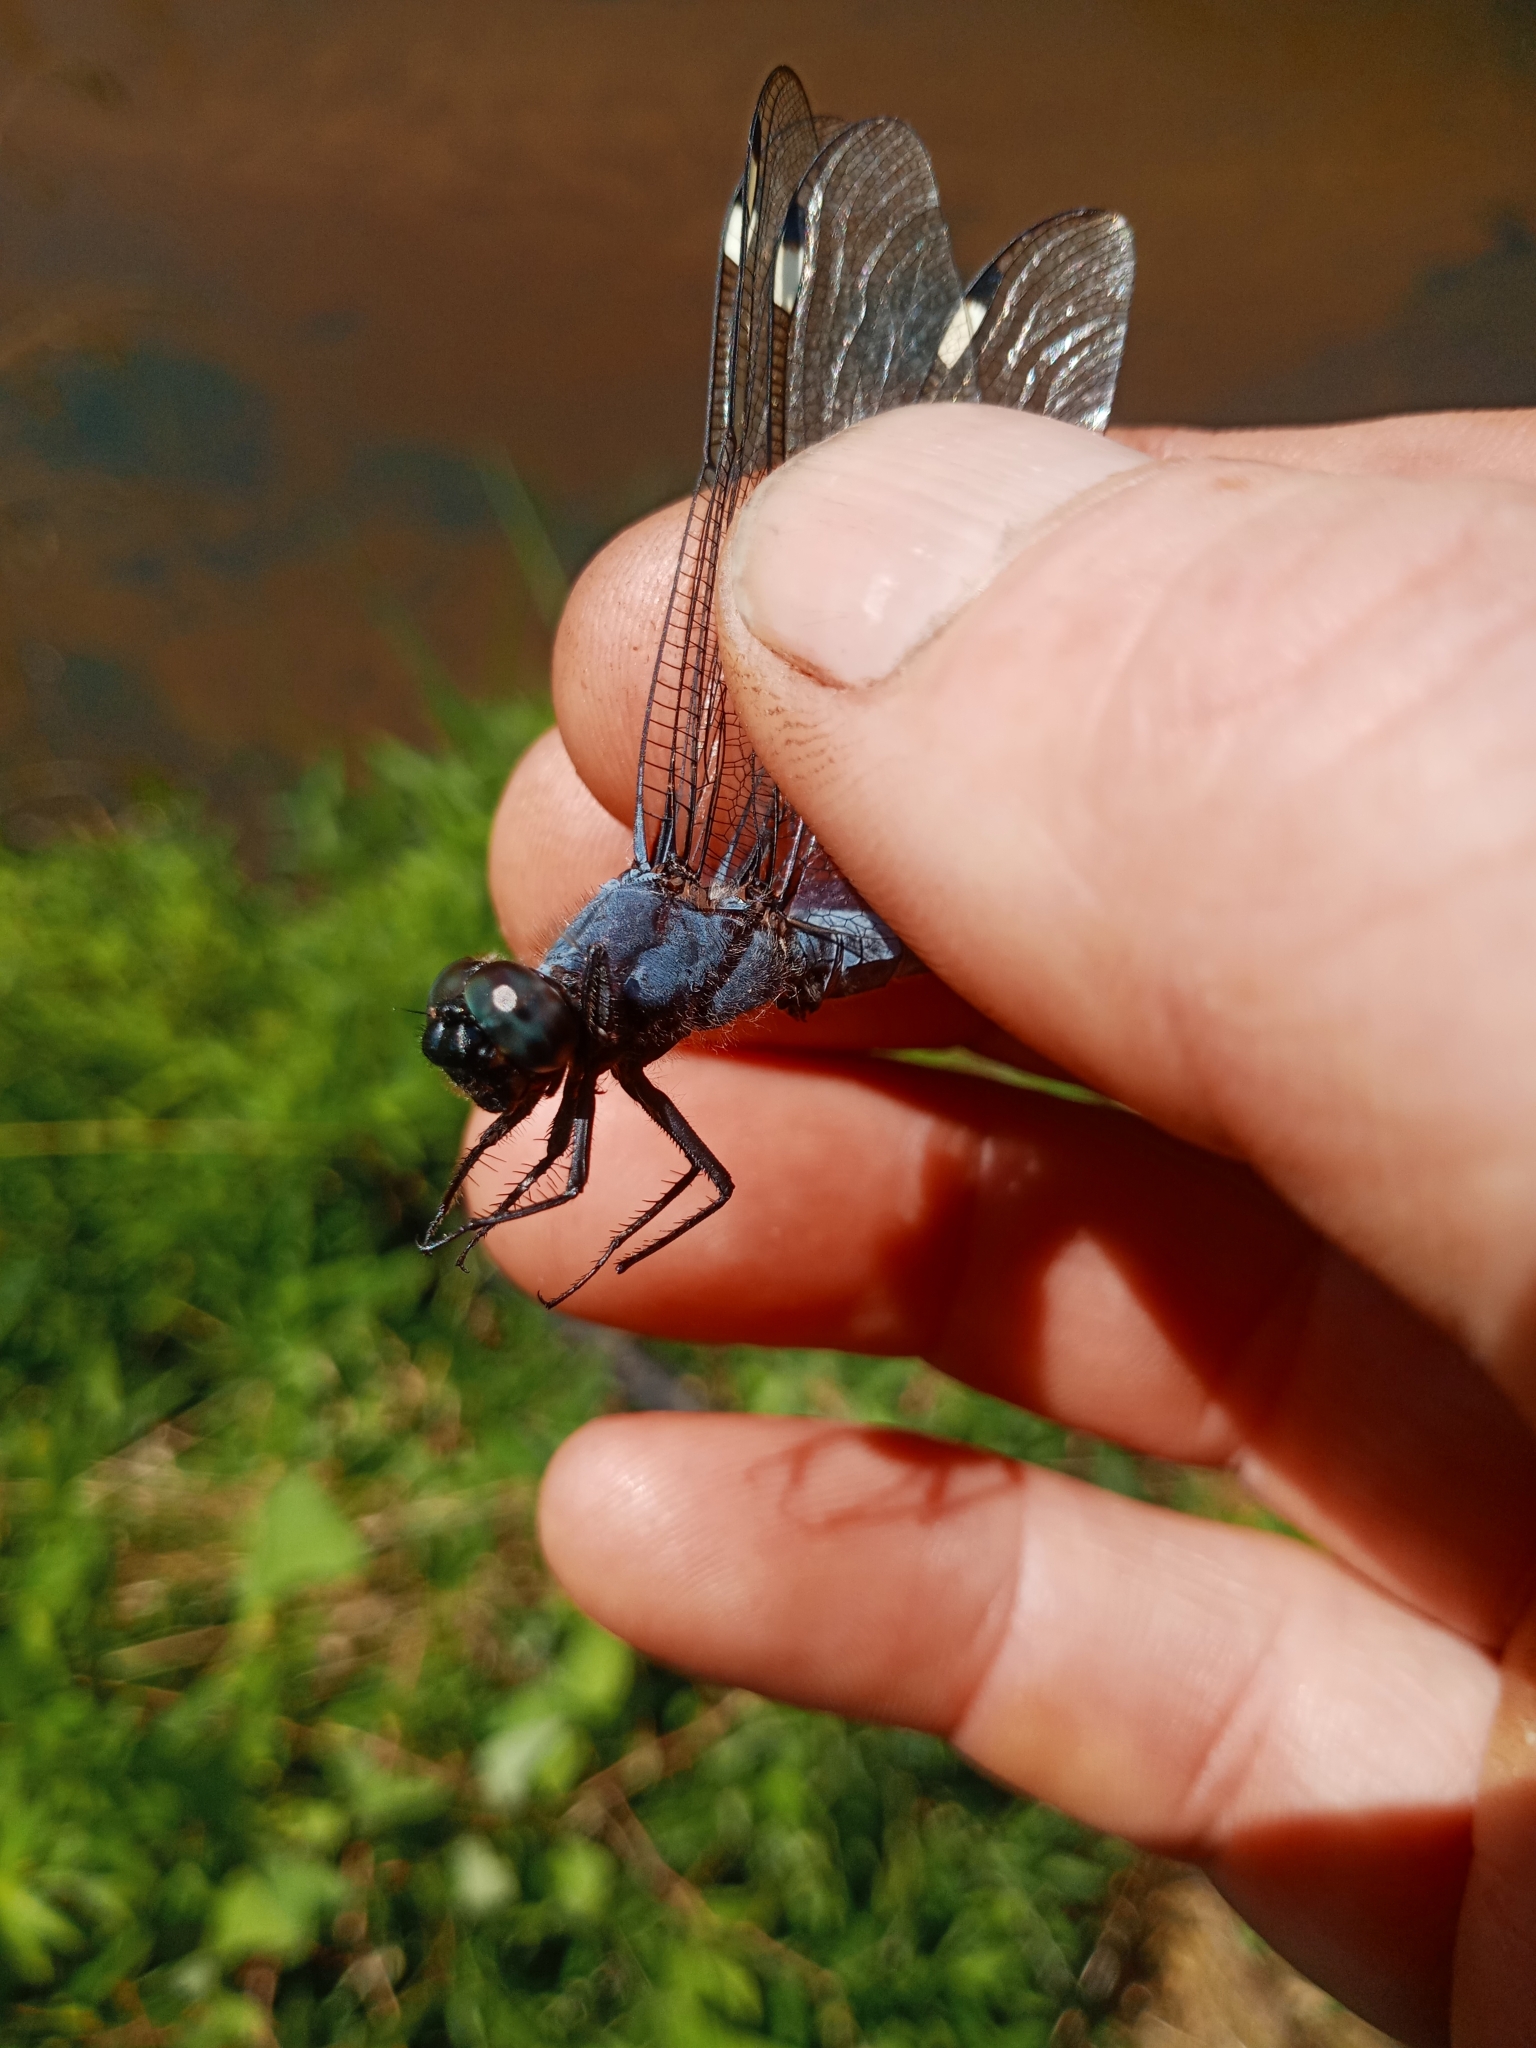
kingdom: Animalia
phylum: Arthropoda
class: Insecta
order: Odonata
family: Libellulidae
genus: Libellula
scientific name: Libellula cyanea
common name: Spangled skimmer
